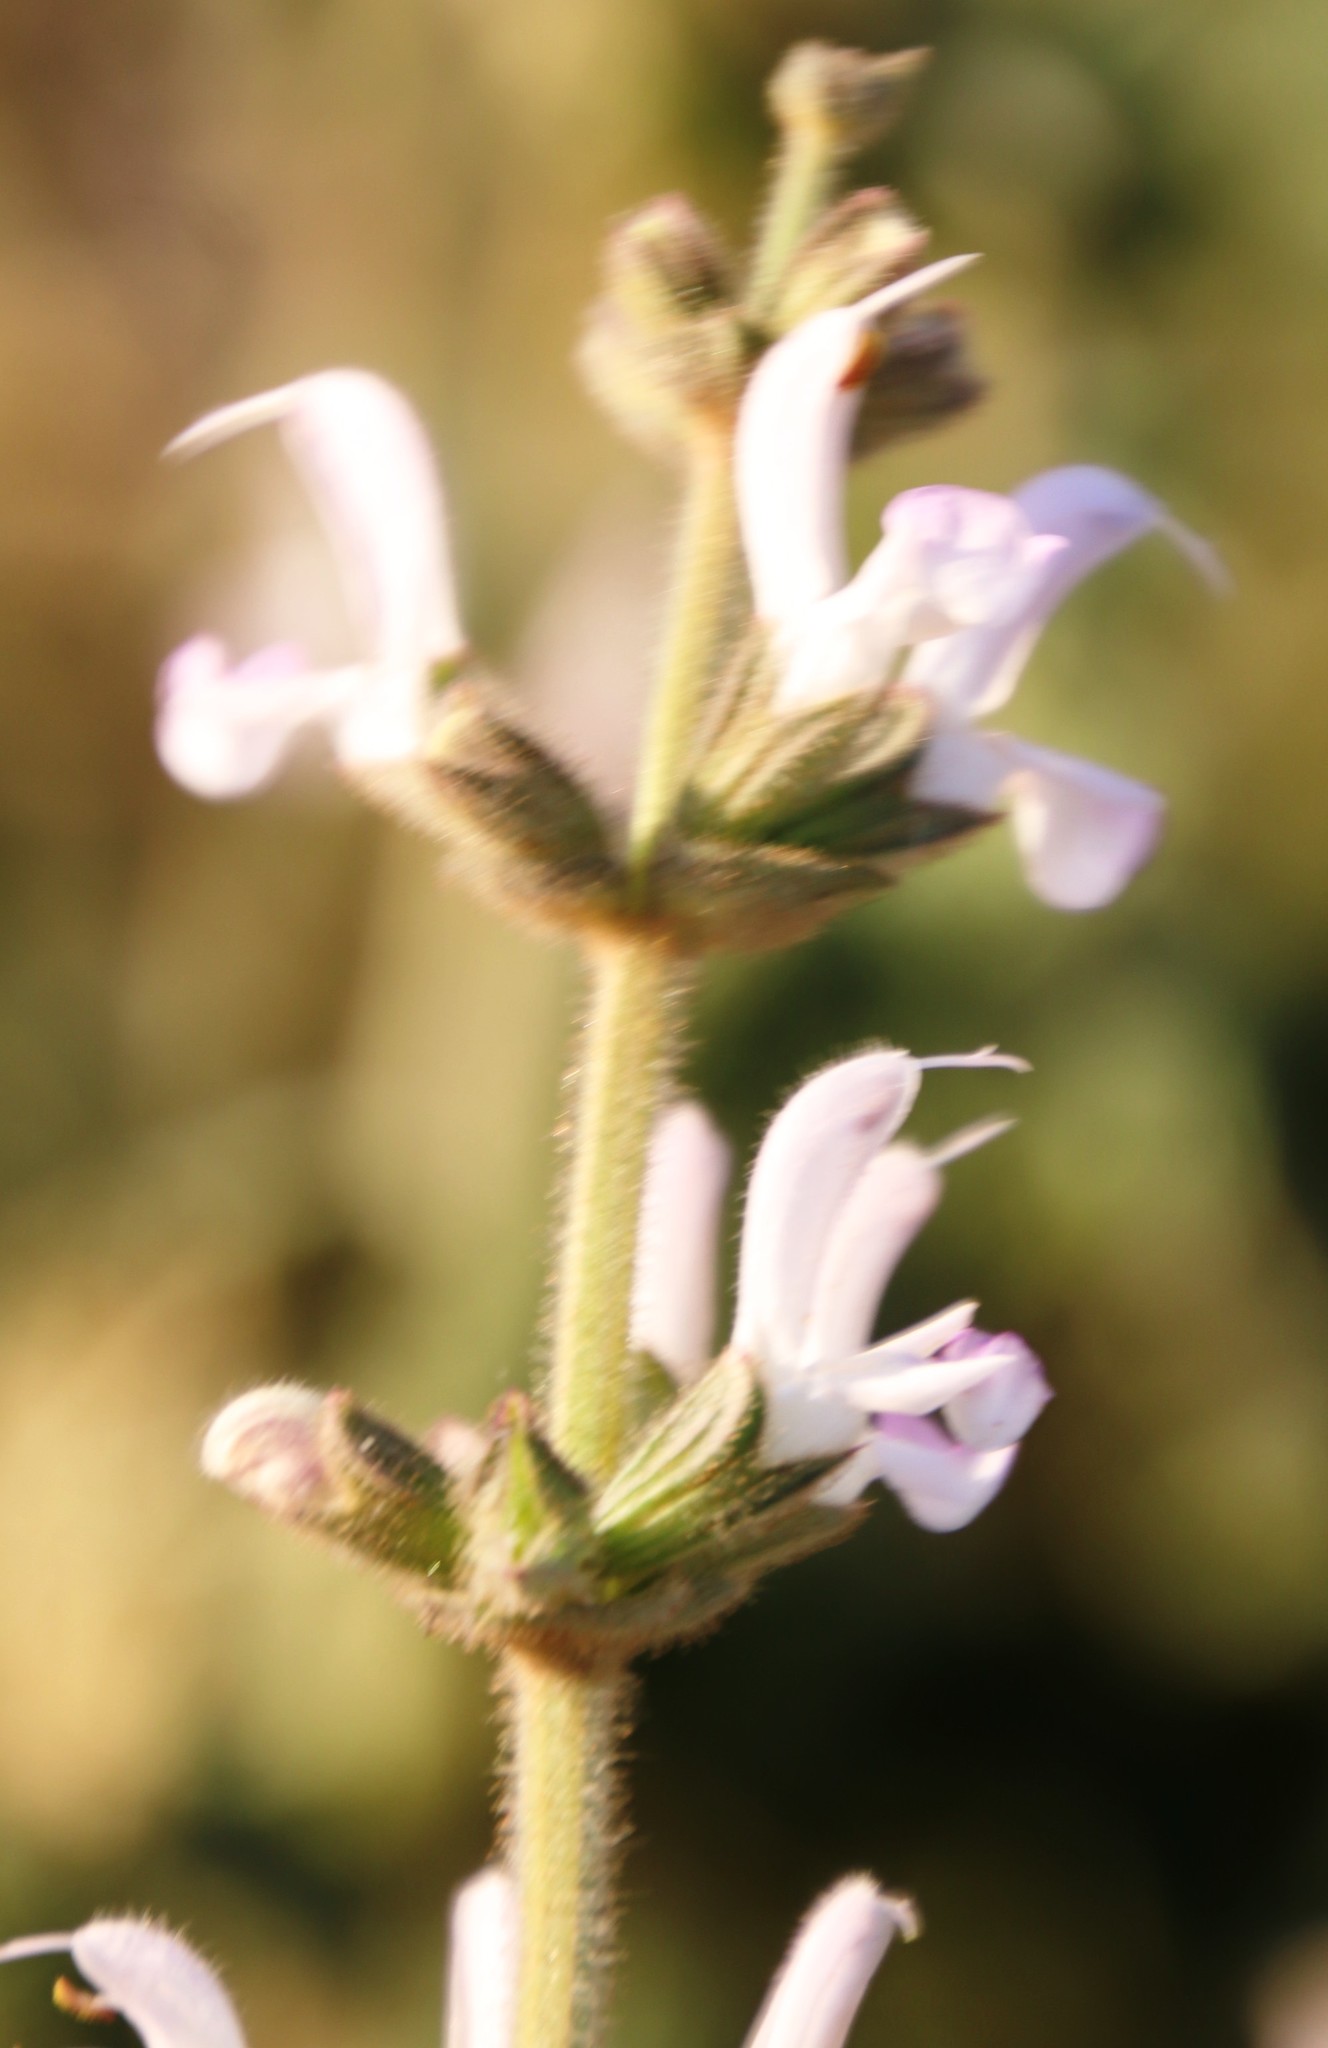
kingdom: Plantae
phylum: Tracheophyta
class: Magnoliopsida
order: Lamiales
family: Lamiaceae
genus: Stachys
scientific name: Stachys rugosa
